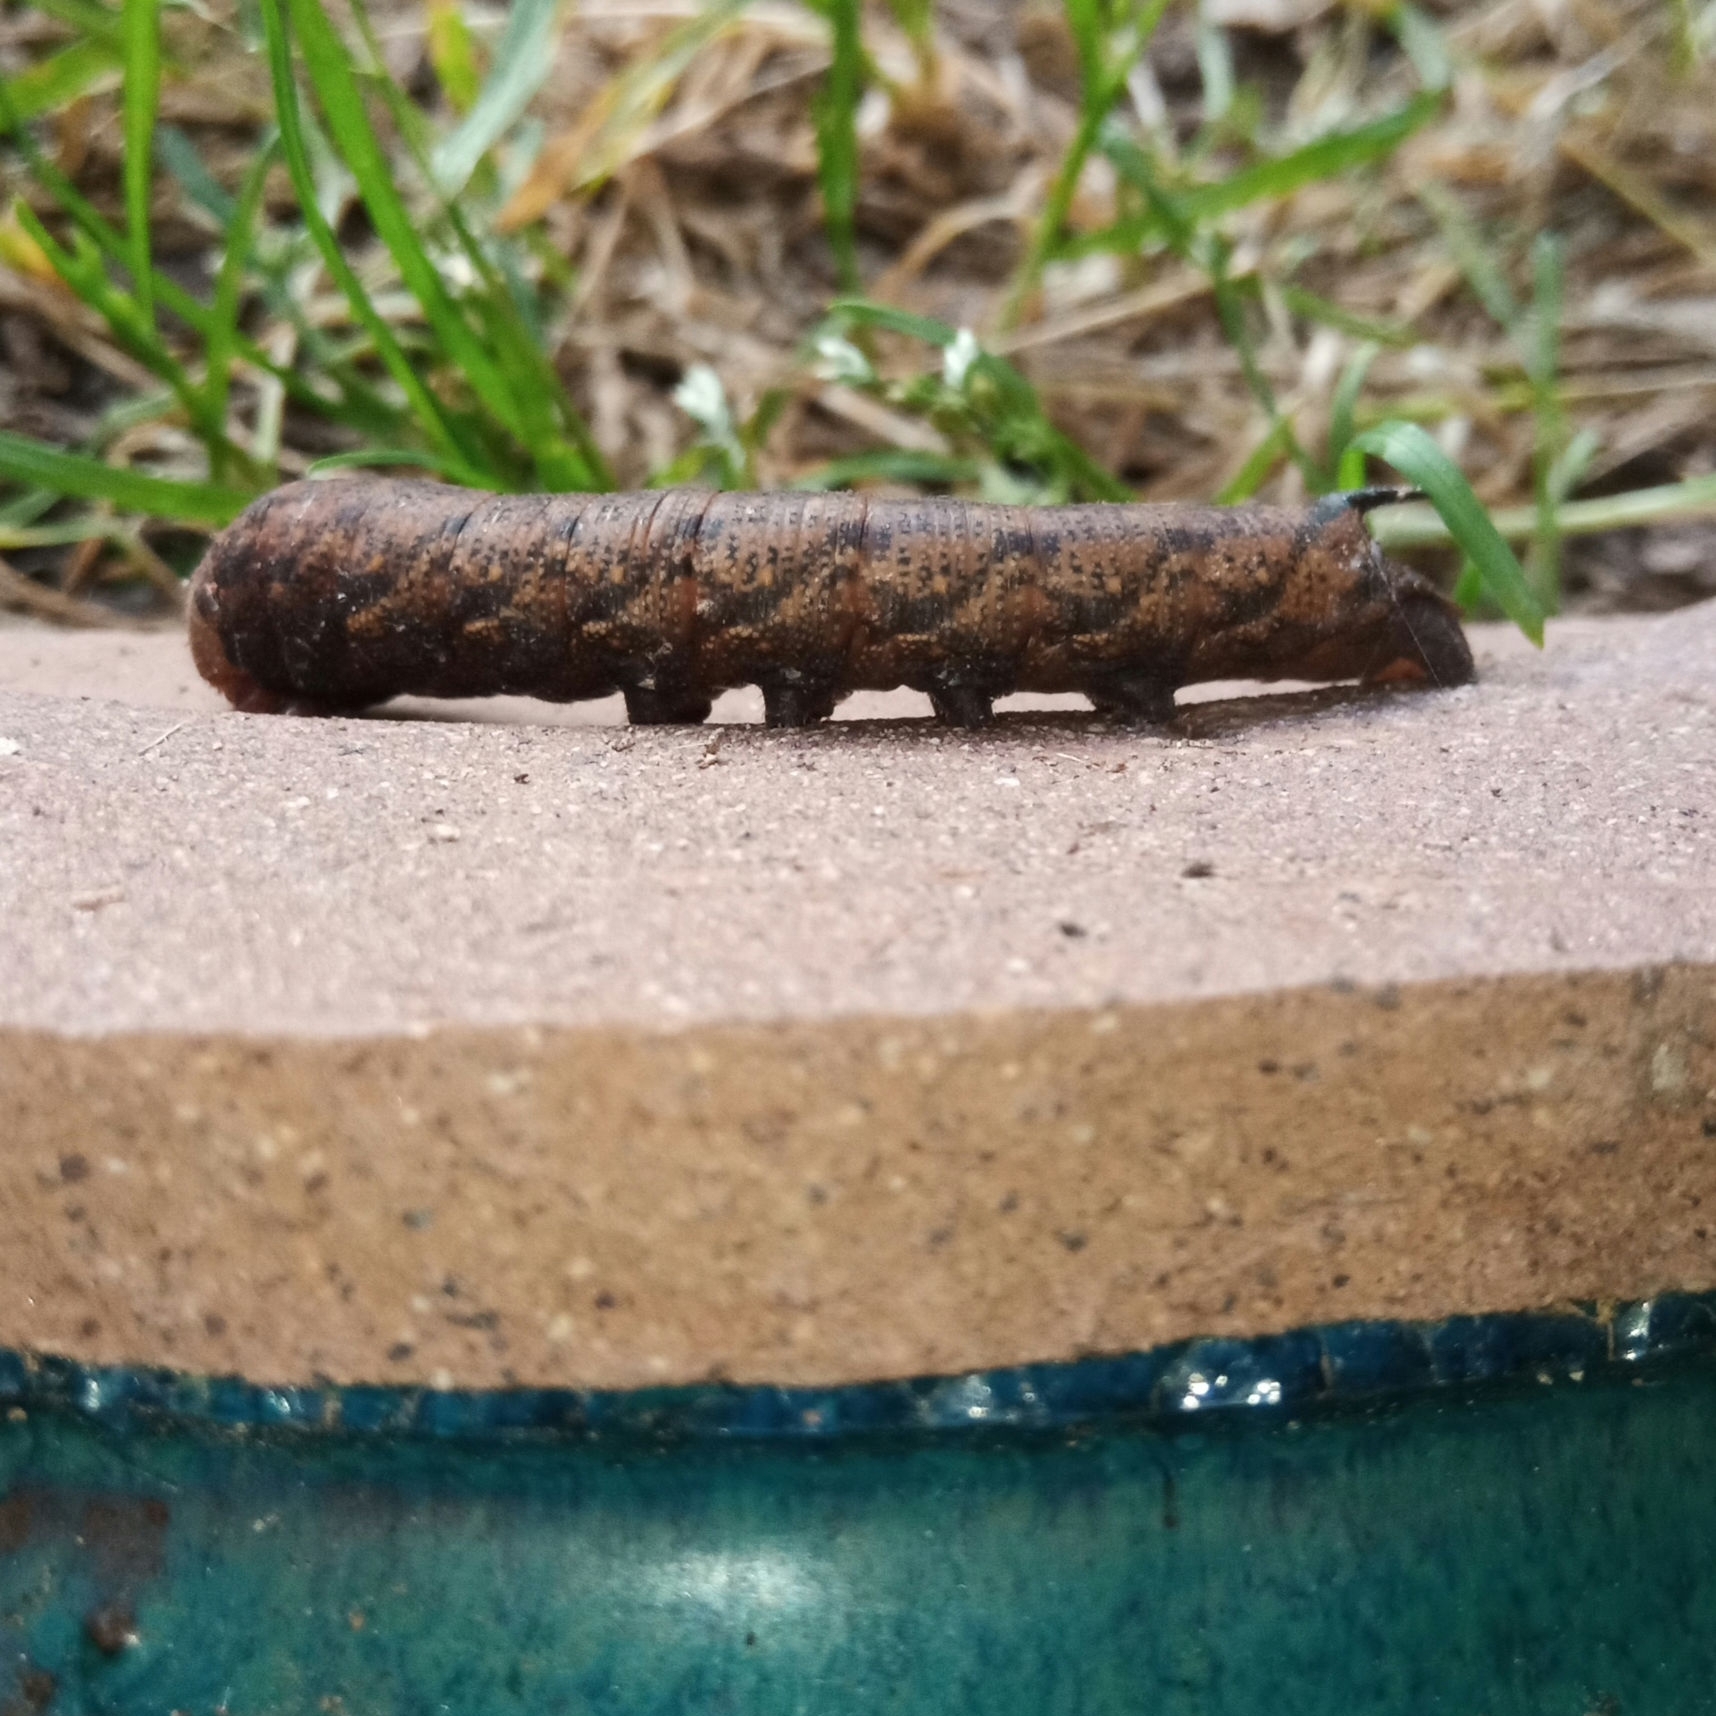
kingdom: Animalia
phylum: Arthropoda
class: Insecta
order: Lepidoptera
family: Sphingidae
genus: Amphion
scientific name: Amphion floridensis
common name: Nessus sphinx
